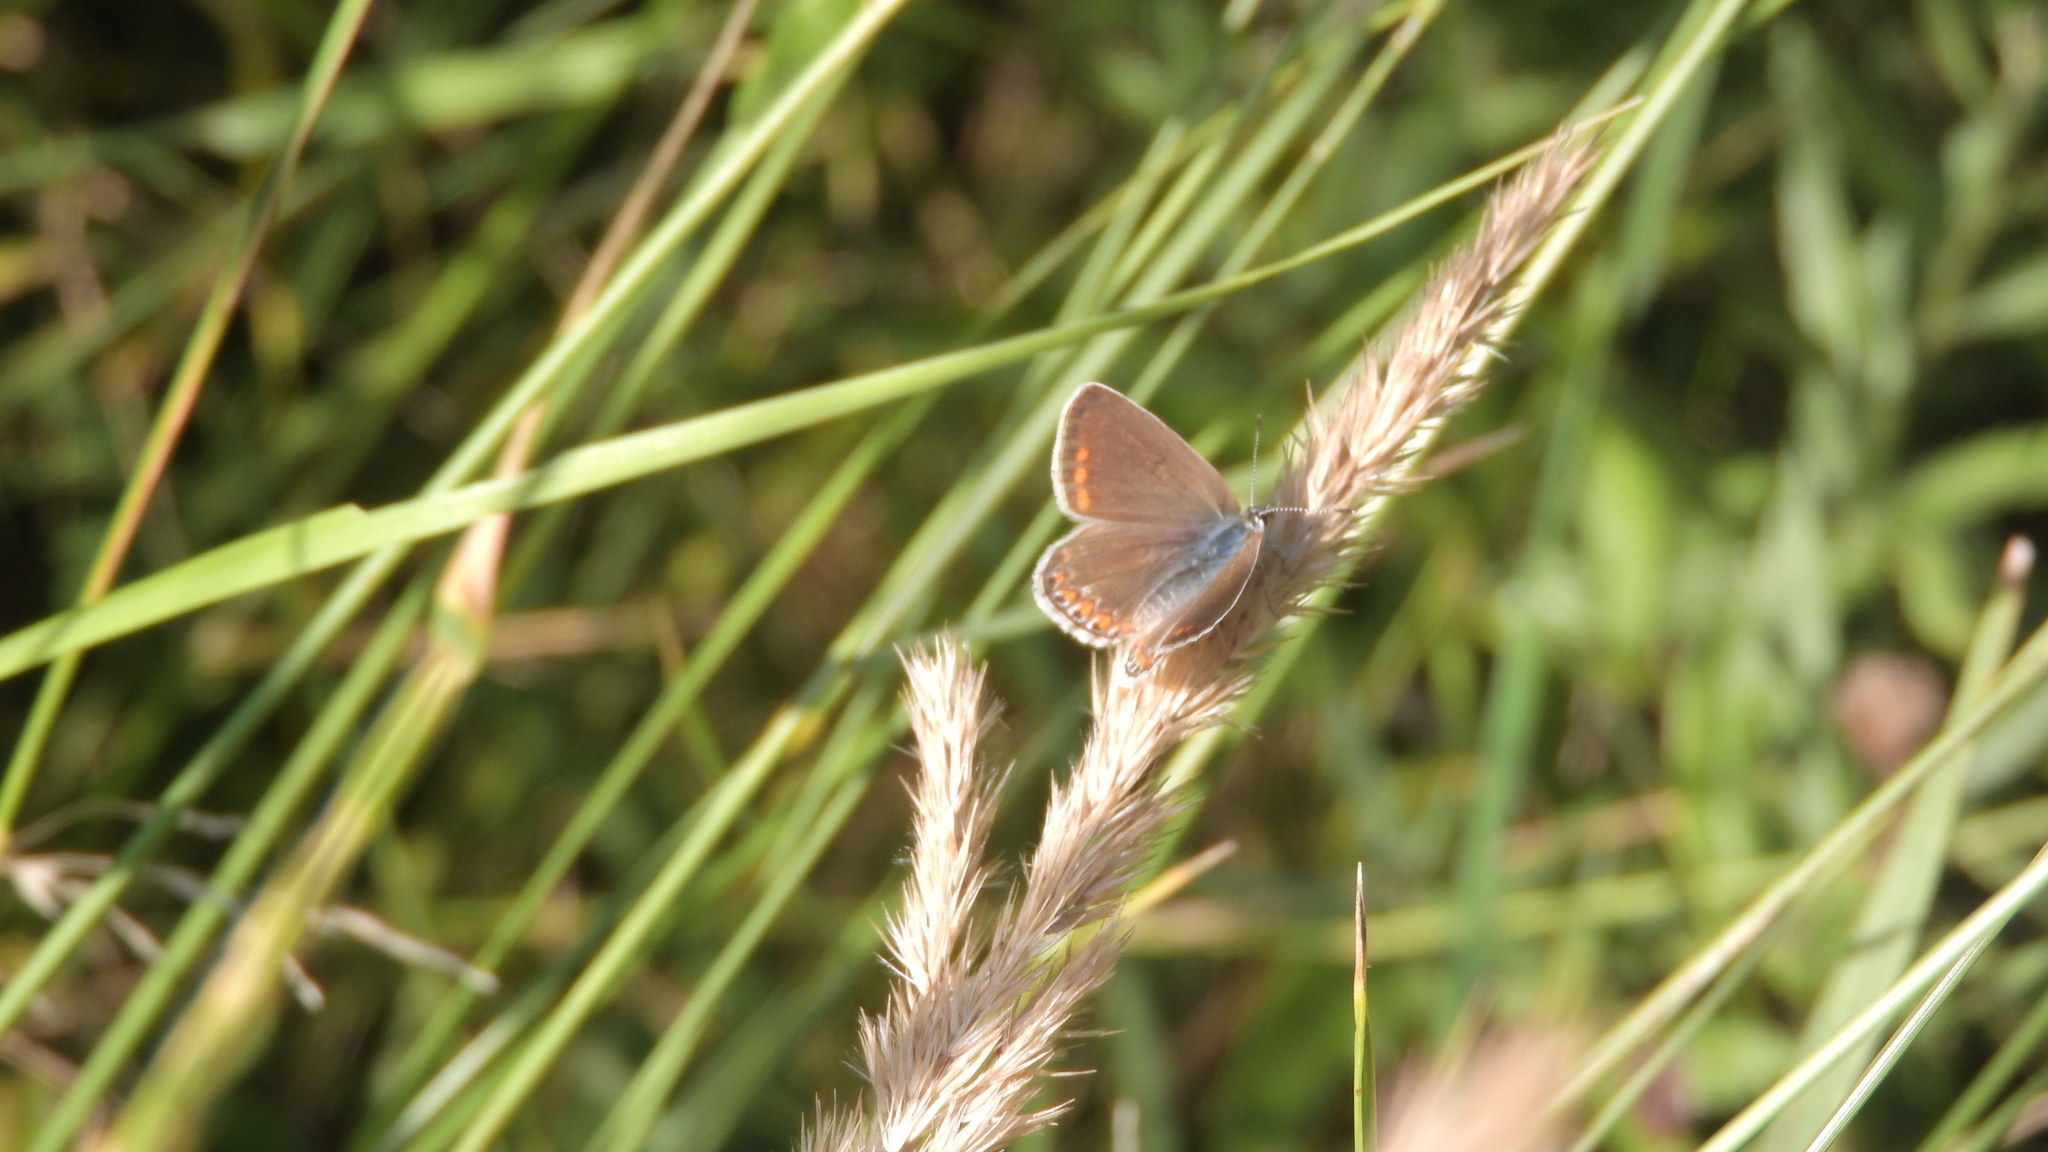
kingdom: Animalia
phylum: Arthropoda
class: Insecta
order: Lepidoptera
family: Lycaenidae
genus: Polyommatus
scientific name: Polyommatus icarus
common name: Common blue
